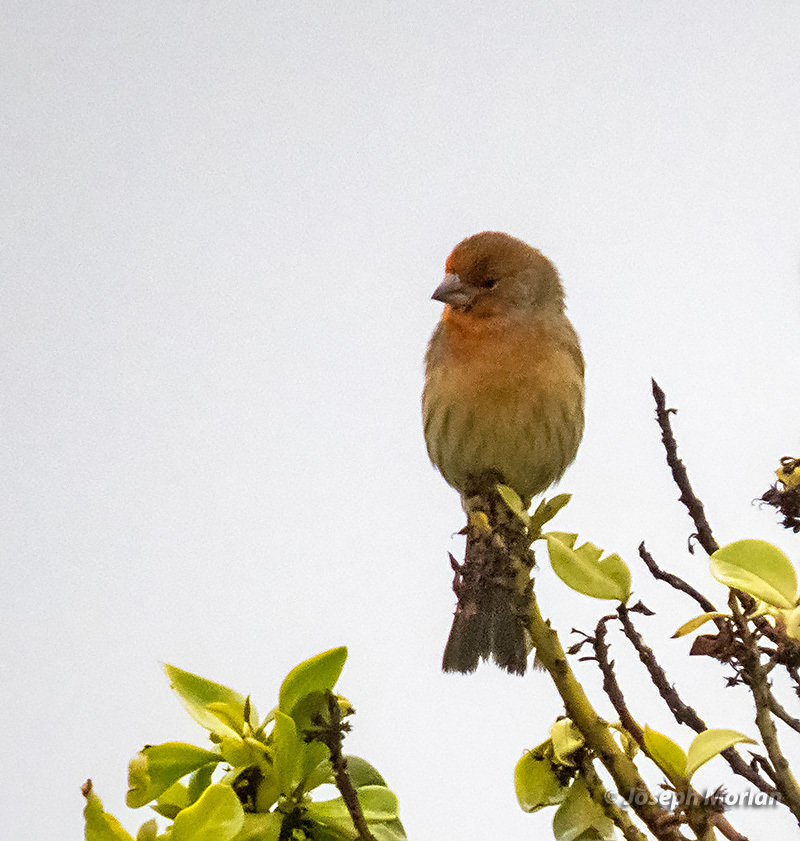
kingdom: Animalia
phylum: Chordata
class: Aves
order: Passeriformes
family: Fringillidae
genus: Haemorhous
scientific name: Haemorhous mexicanus
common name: House finch
